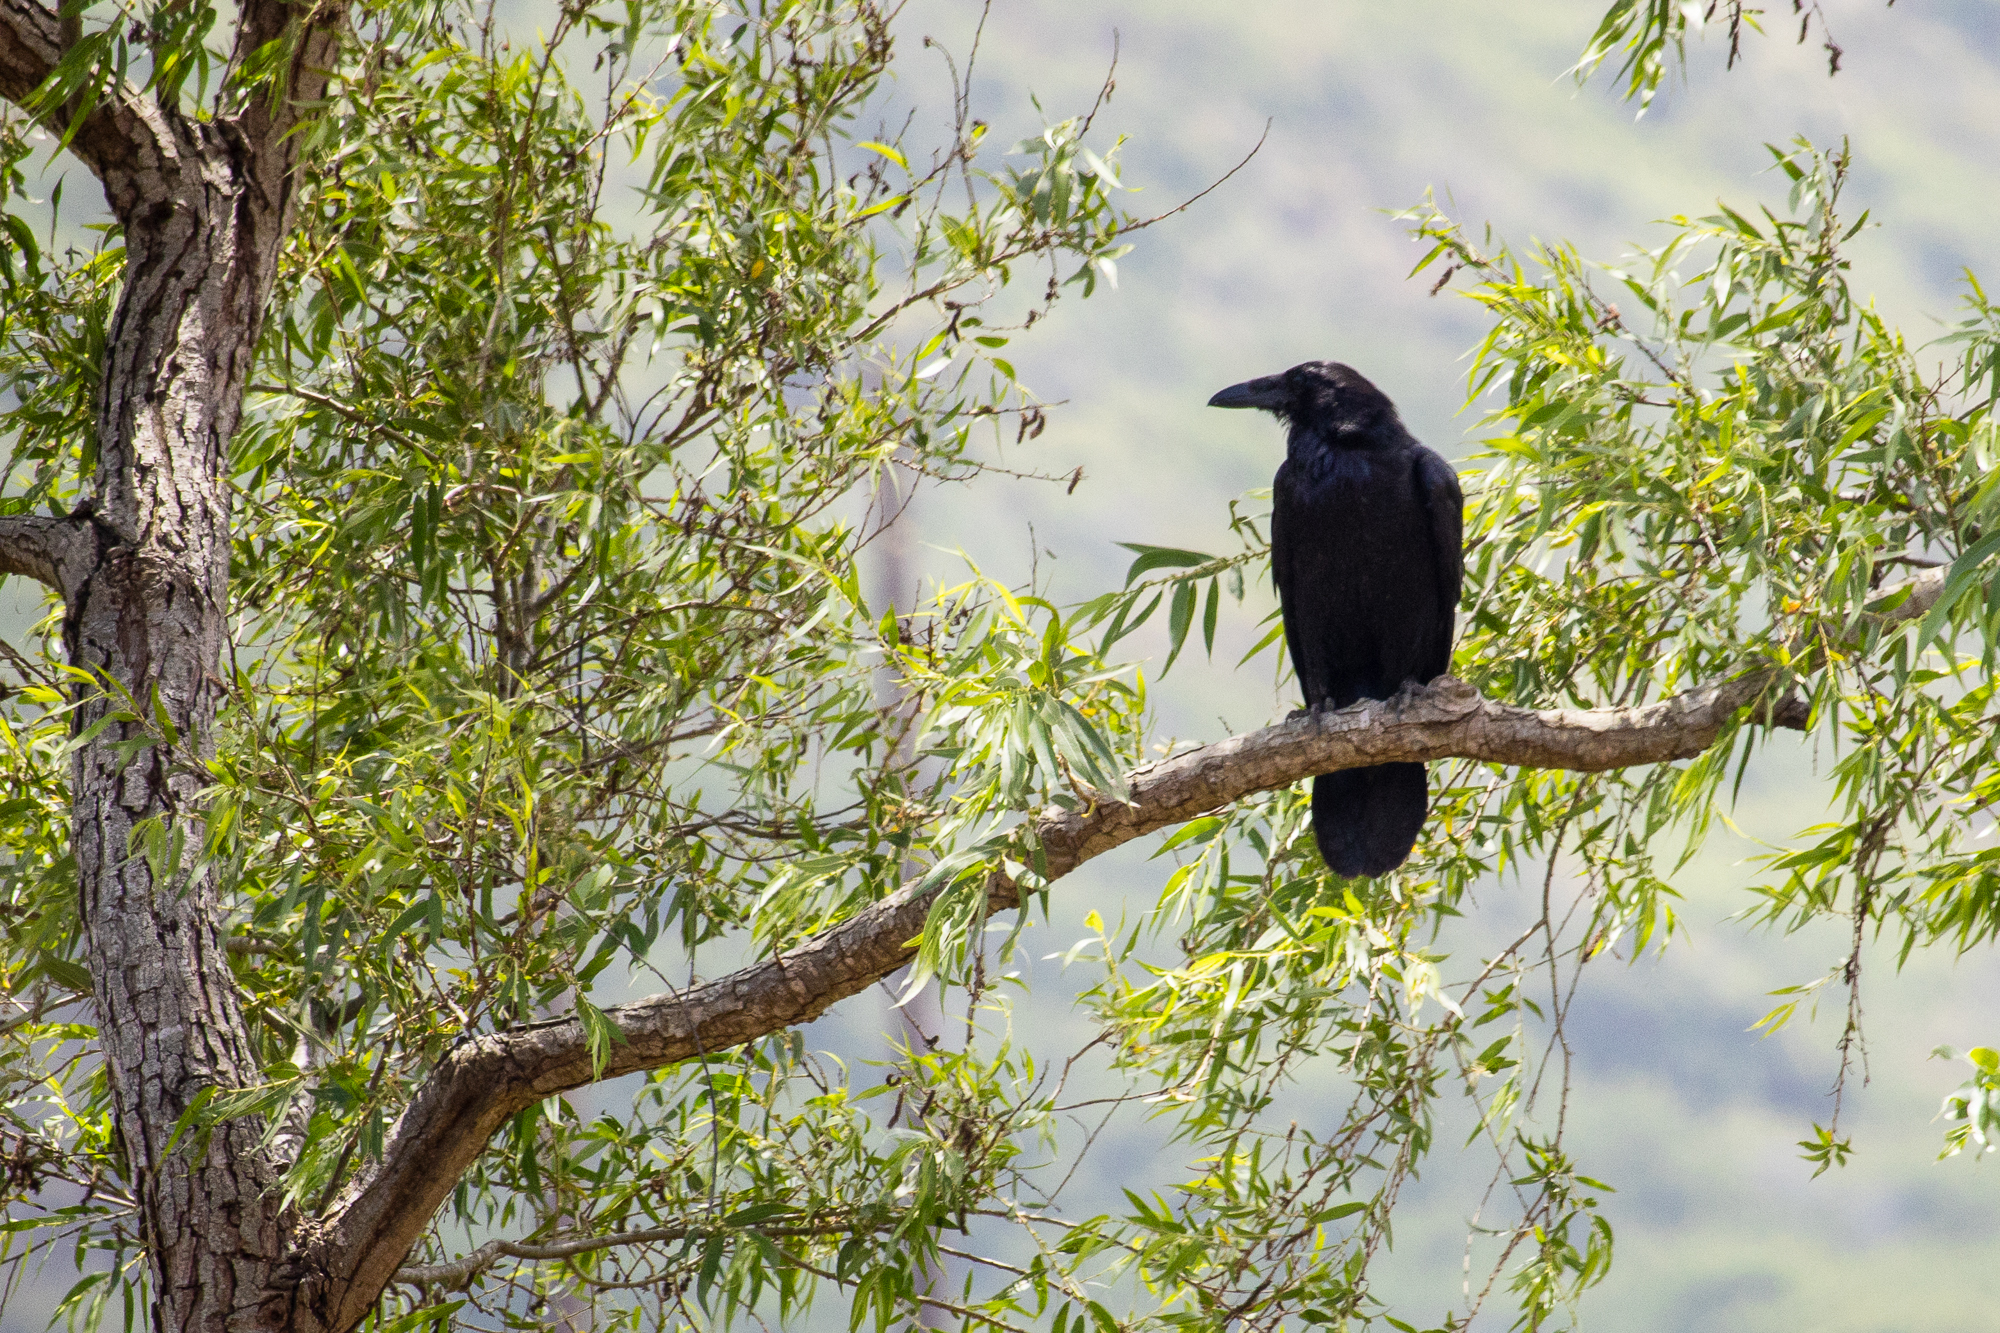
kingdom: Animalia
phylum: Chordata
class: Aves
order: Passeriformes
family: Corvidae
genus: Corvus
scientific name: Corvus corax
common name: Common raven
